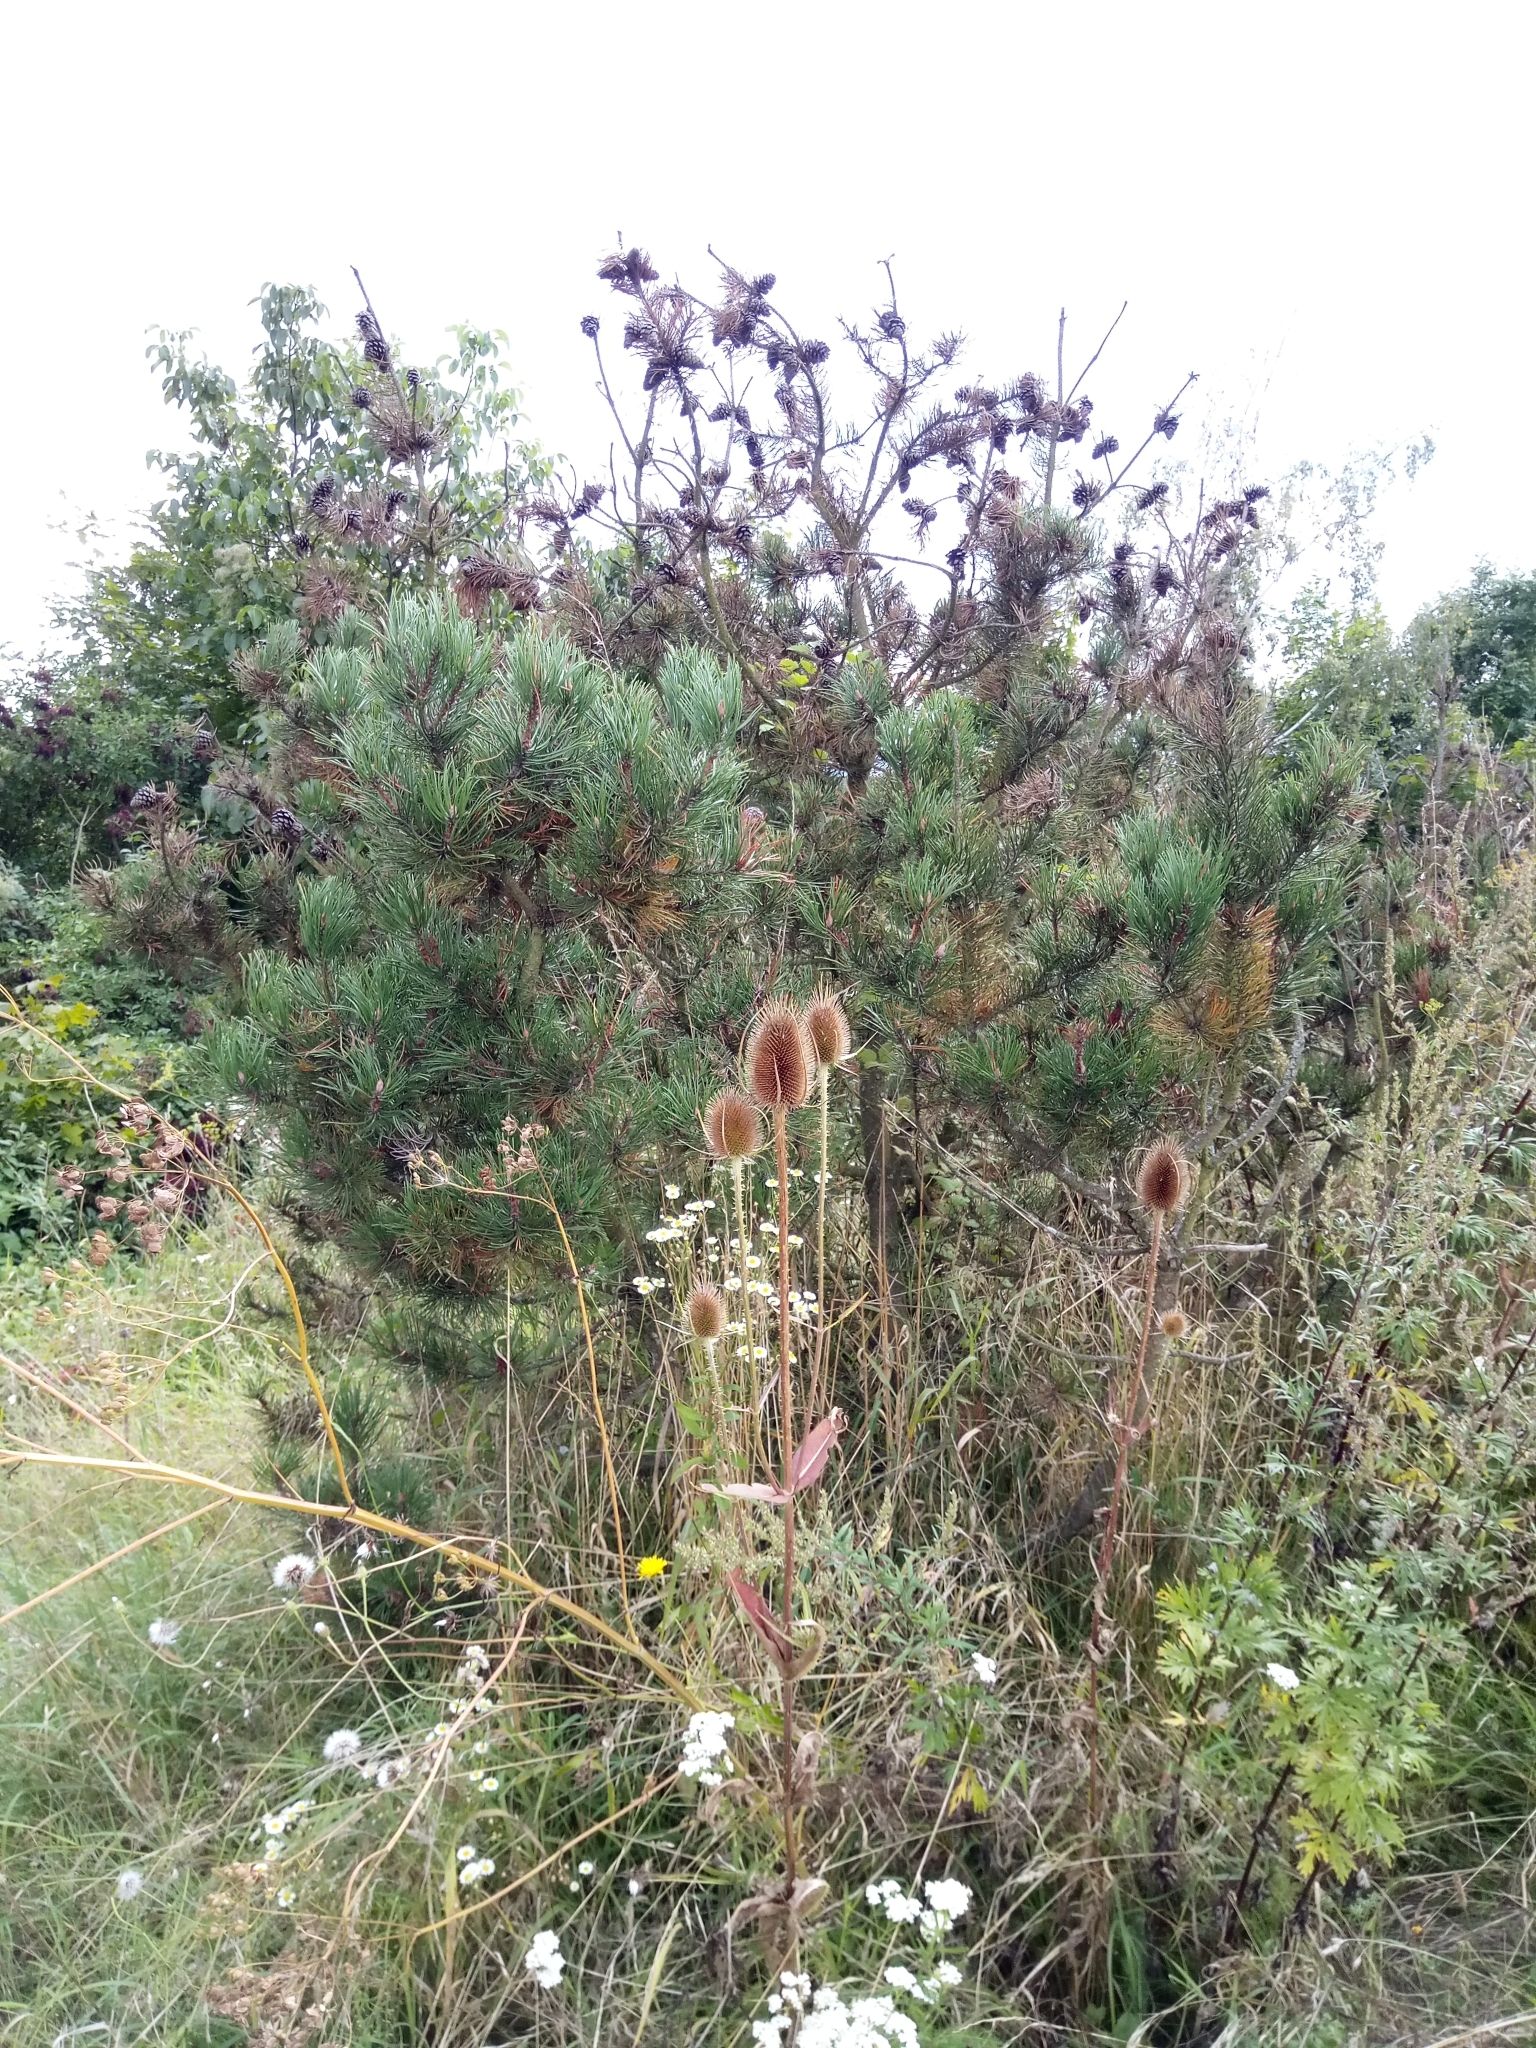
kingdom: Plantae
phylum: Tracheophyta
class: Pinopsida
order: Pinales
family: Pinaceae
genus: Pinus
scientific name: Pinus sylvestris
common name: Scots pine
